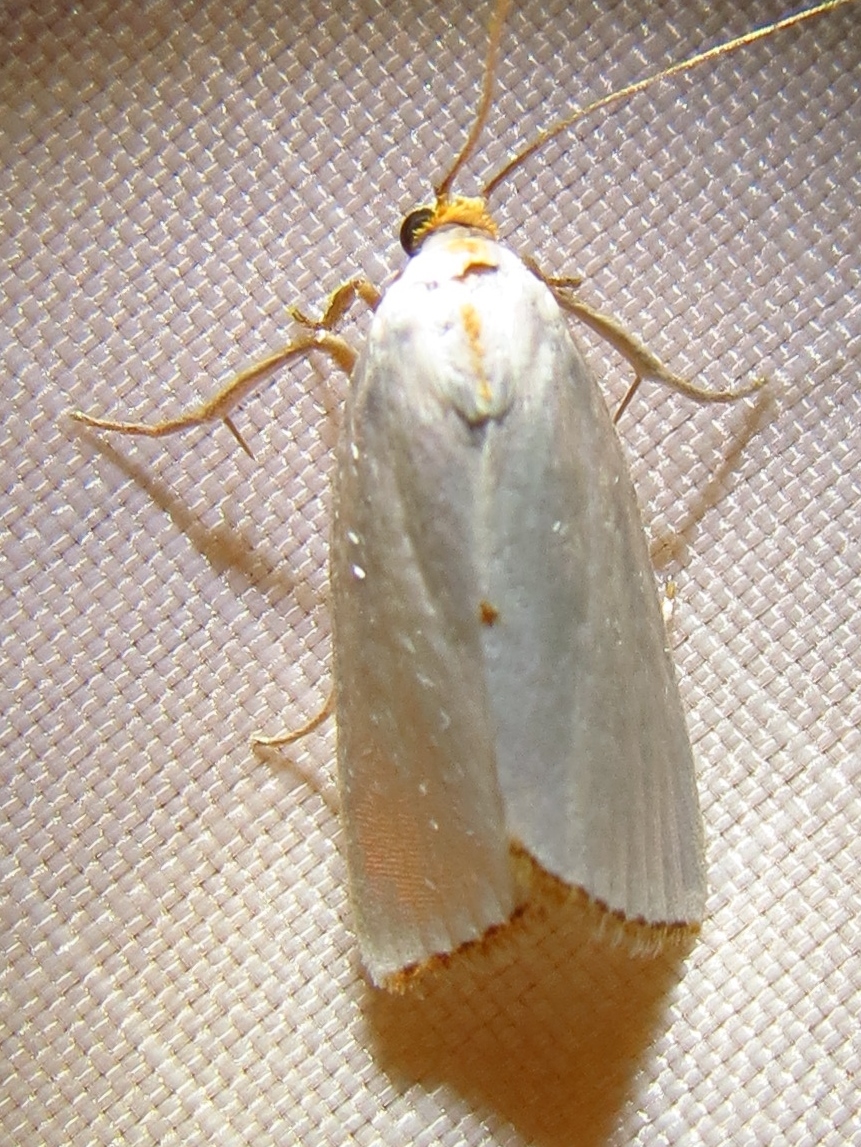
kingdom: Animalia
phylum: Arthropoda
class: Insecta
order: Lepidoptera
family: Crambidae
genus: Argyria
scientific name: Argyria nivalis
